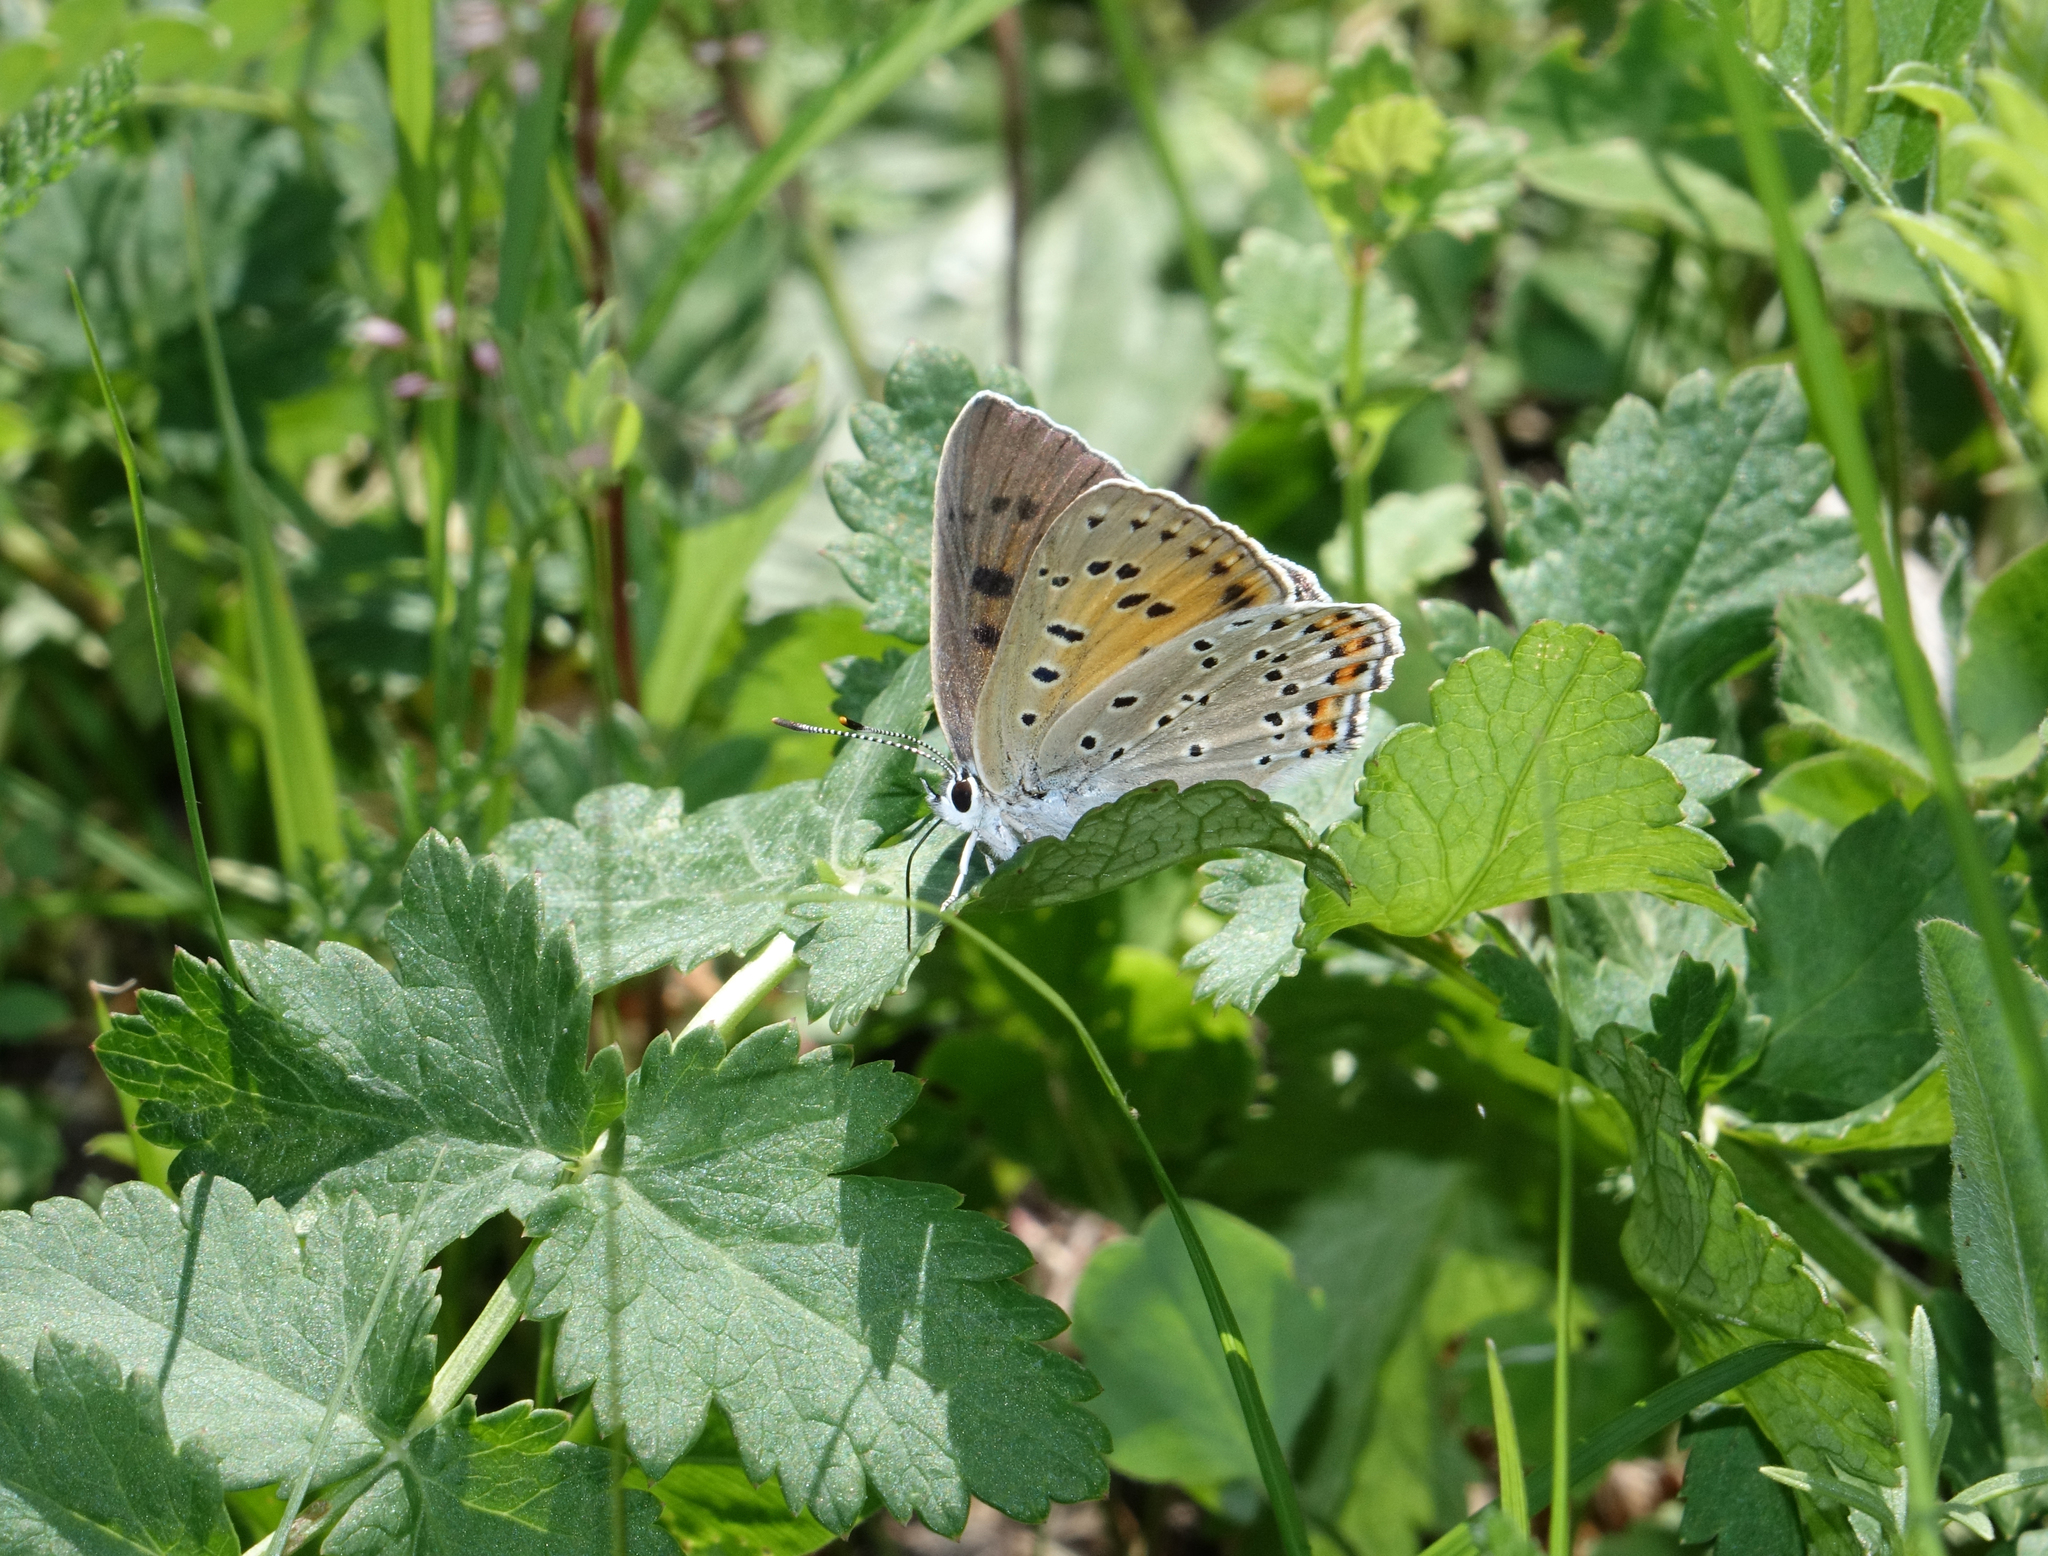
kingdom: Plantae
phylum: Tracheophyta
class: Magnoliopsida
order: Apiales
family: Apiaceae
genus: Pimpinella
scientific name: Pimpinella saxifraga
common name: Burnet-saxifrage
